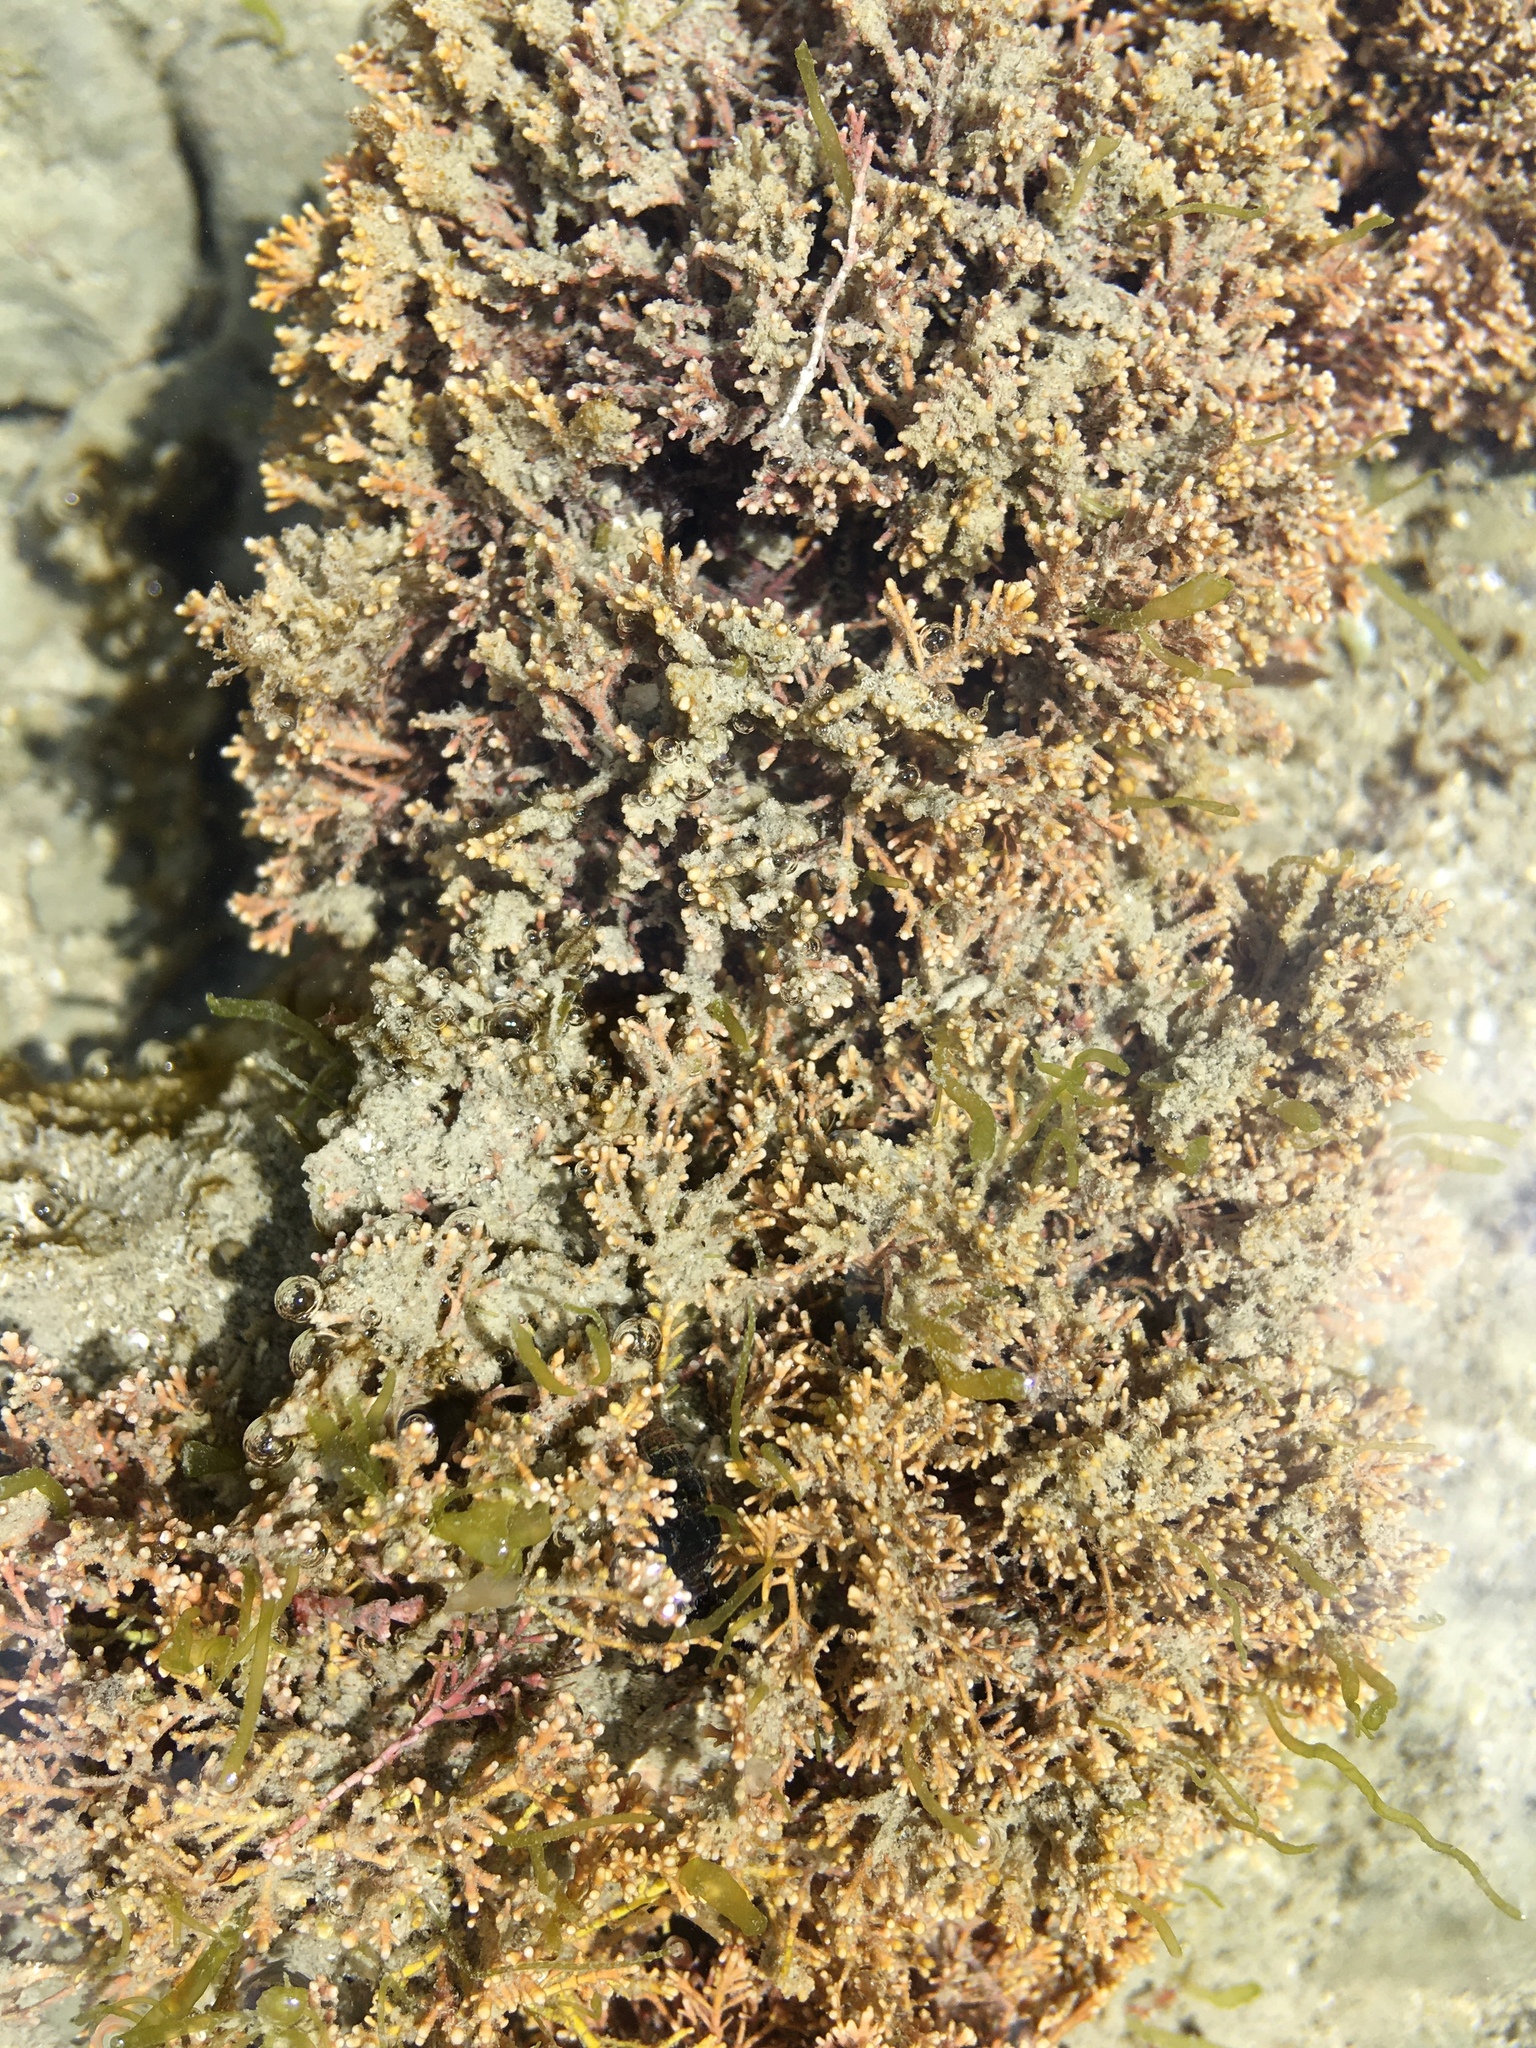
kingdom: Plantae
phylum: Rhodophyta
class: Florideophyceae
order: Corallinales
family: Corallinaceae
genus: Corallina
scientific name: Corallina officinalis
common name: Coral weed
